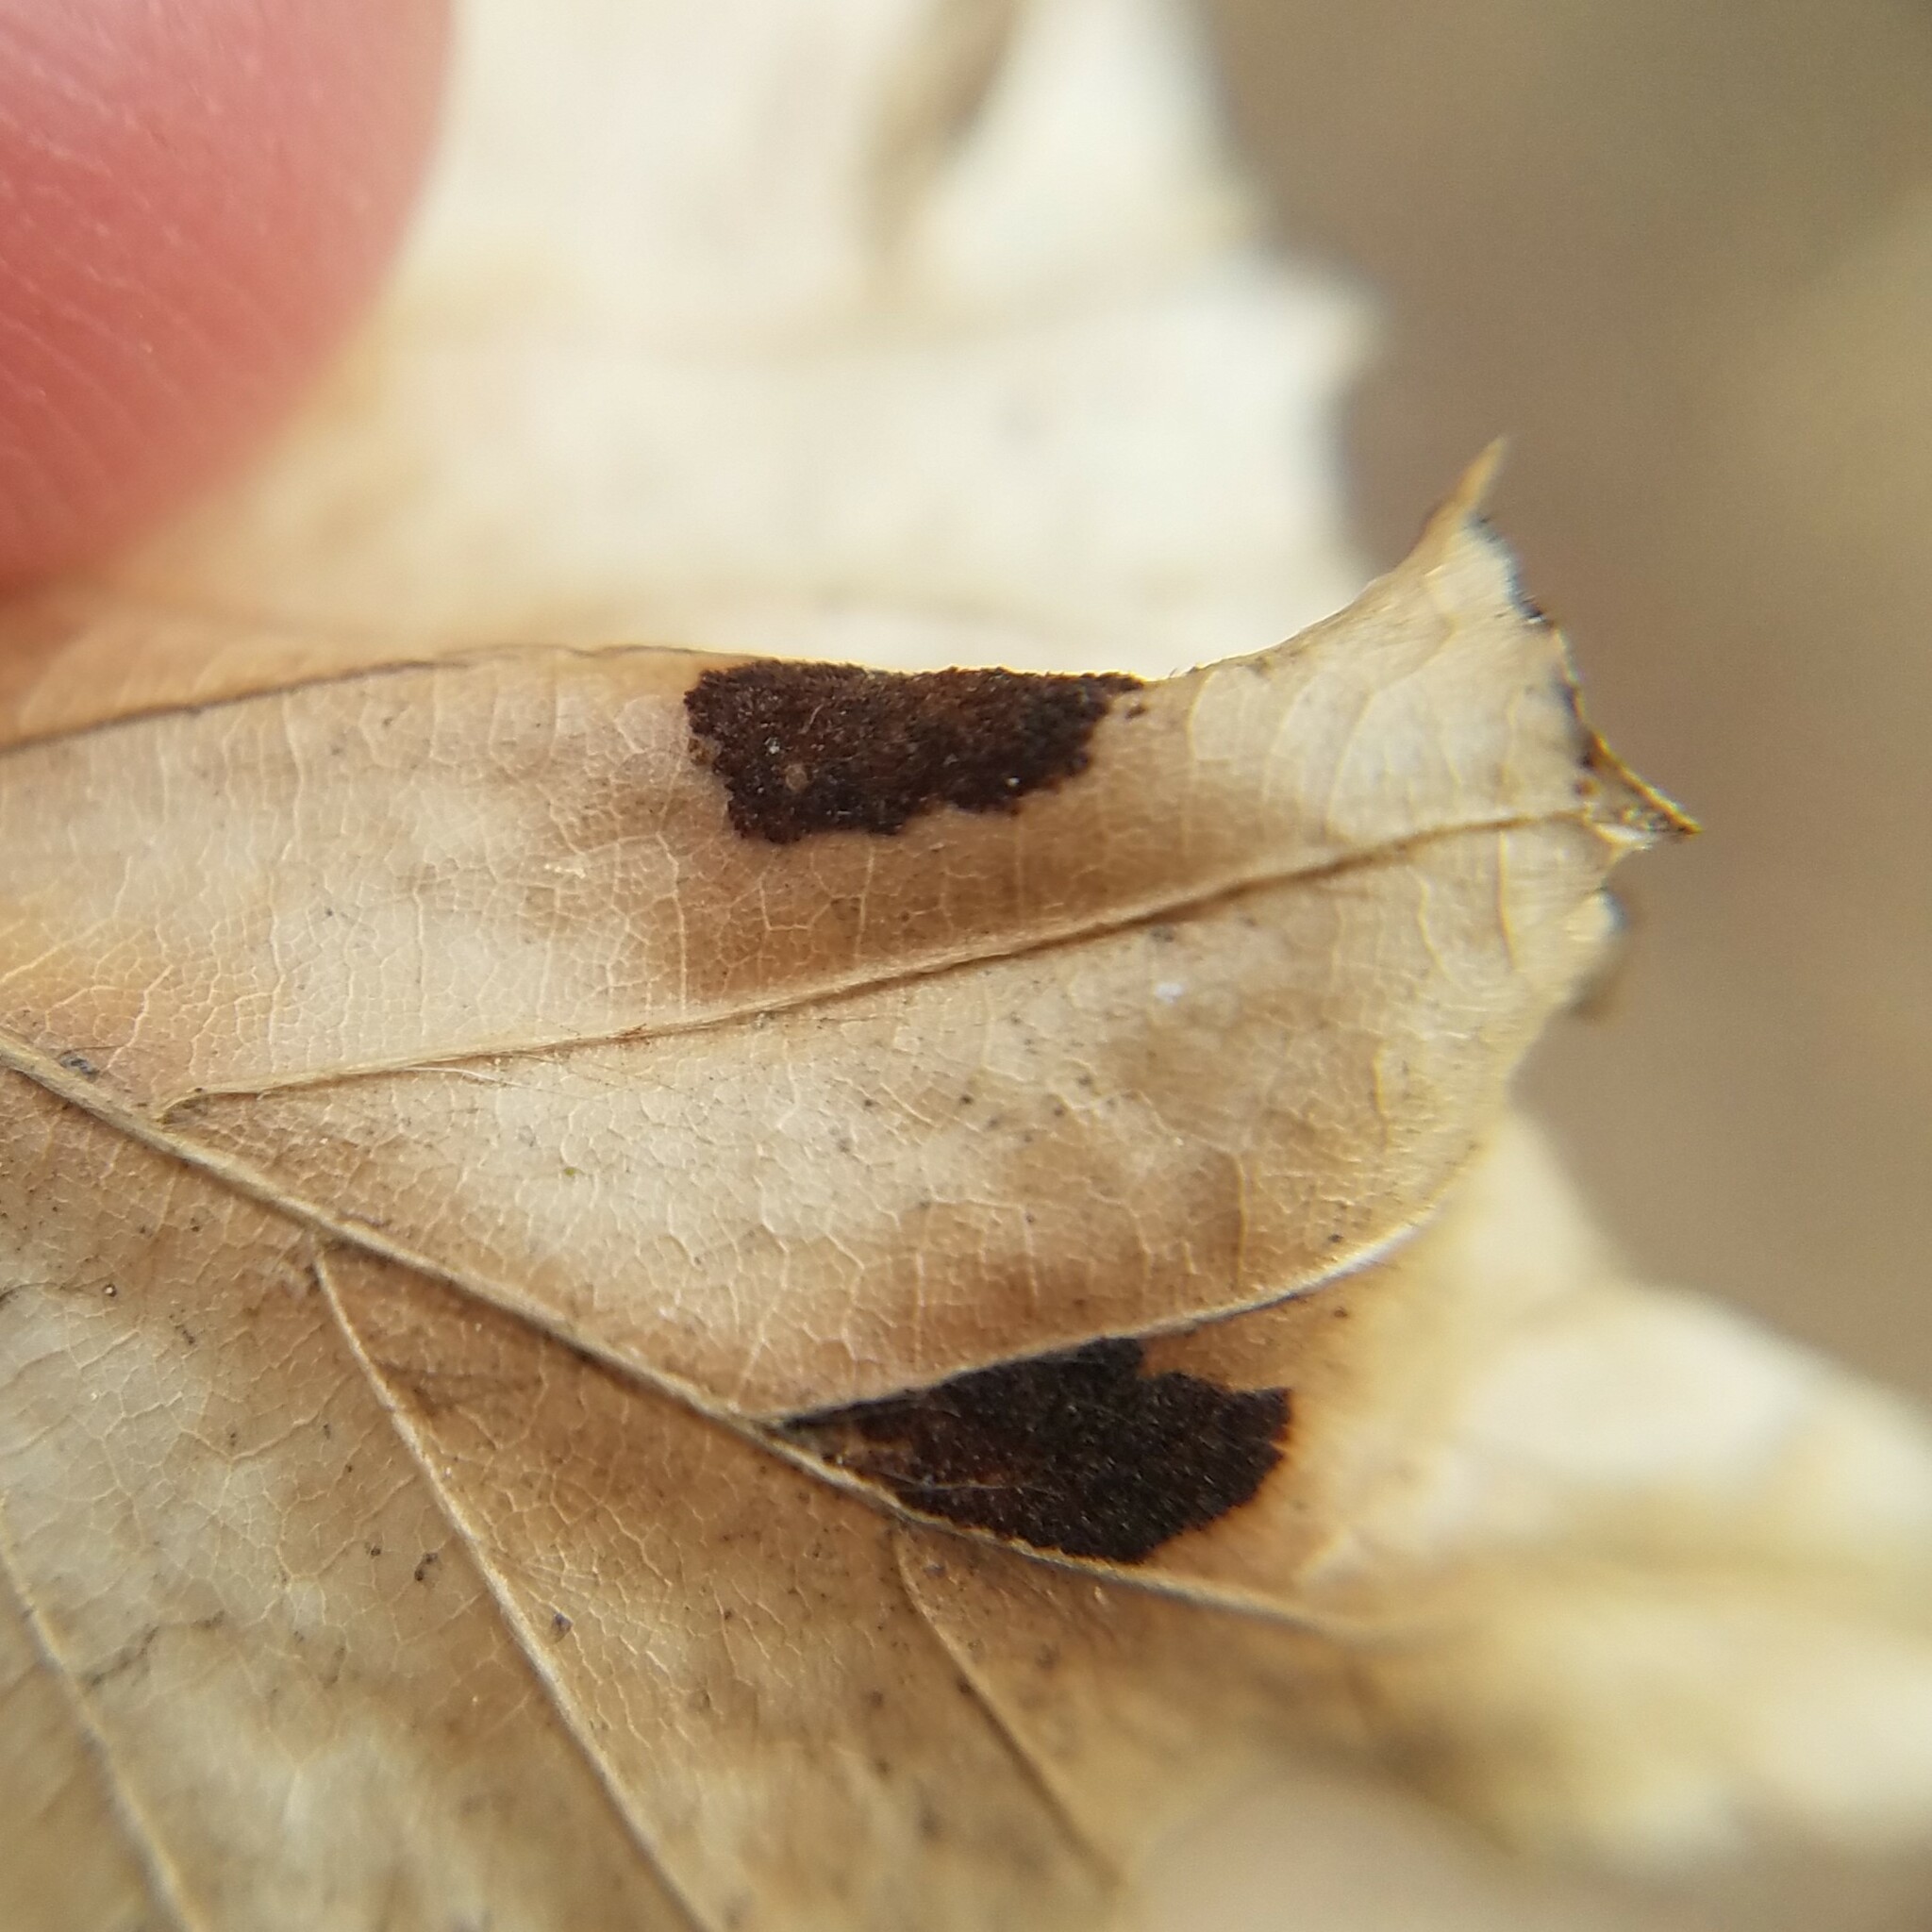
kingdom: Animalia
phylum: Arthropoda
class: Arachnida
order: Trombidiformes
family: Eriophyidae
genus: Acalitus
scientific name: Acalitus
